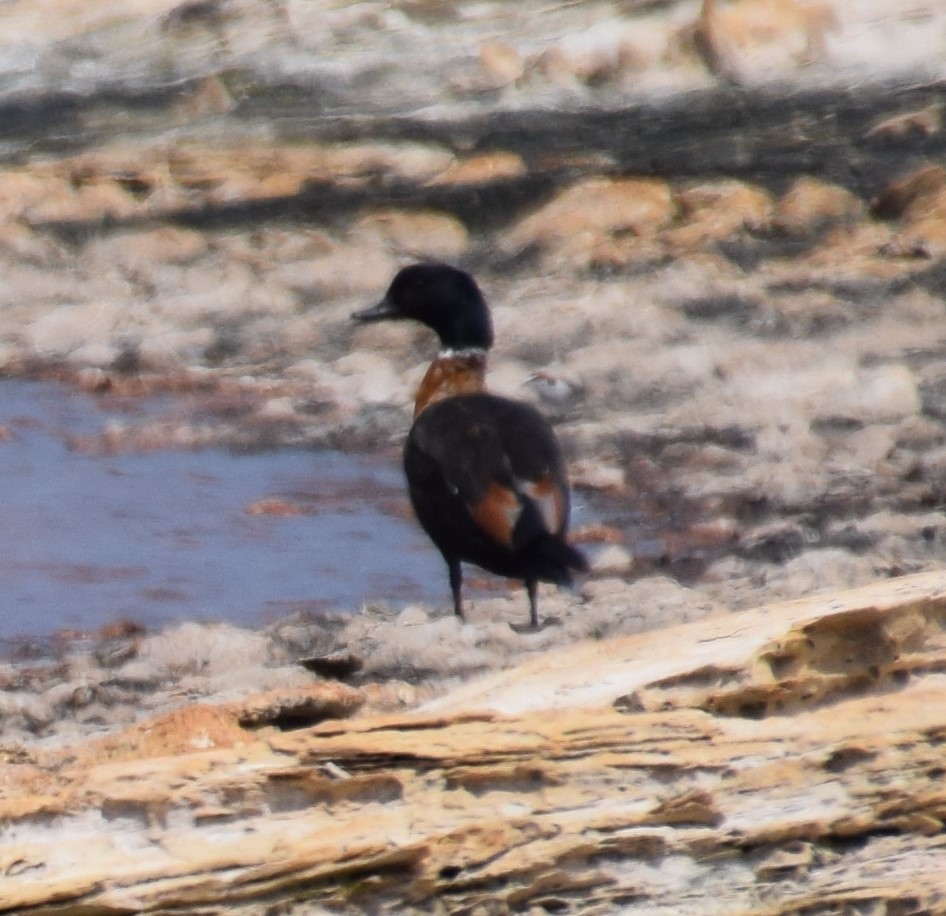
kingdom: Animalia
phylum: Chordata
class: Aves
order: Anseriformes
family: Anatidae
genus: Tadorna
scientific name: Tadorna tadornoides
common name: Australian shelduck
